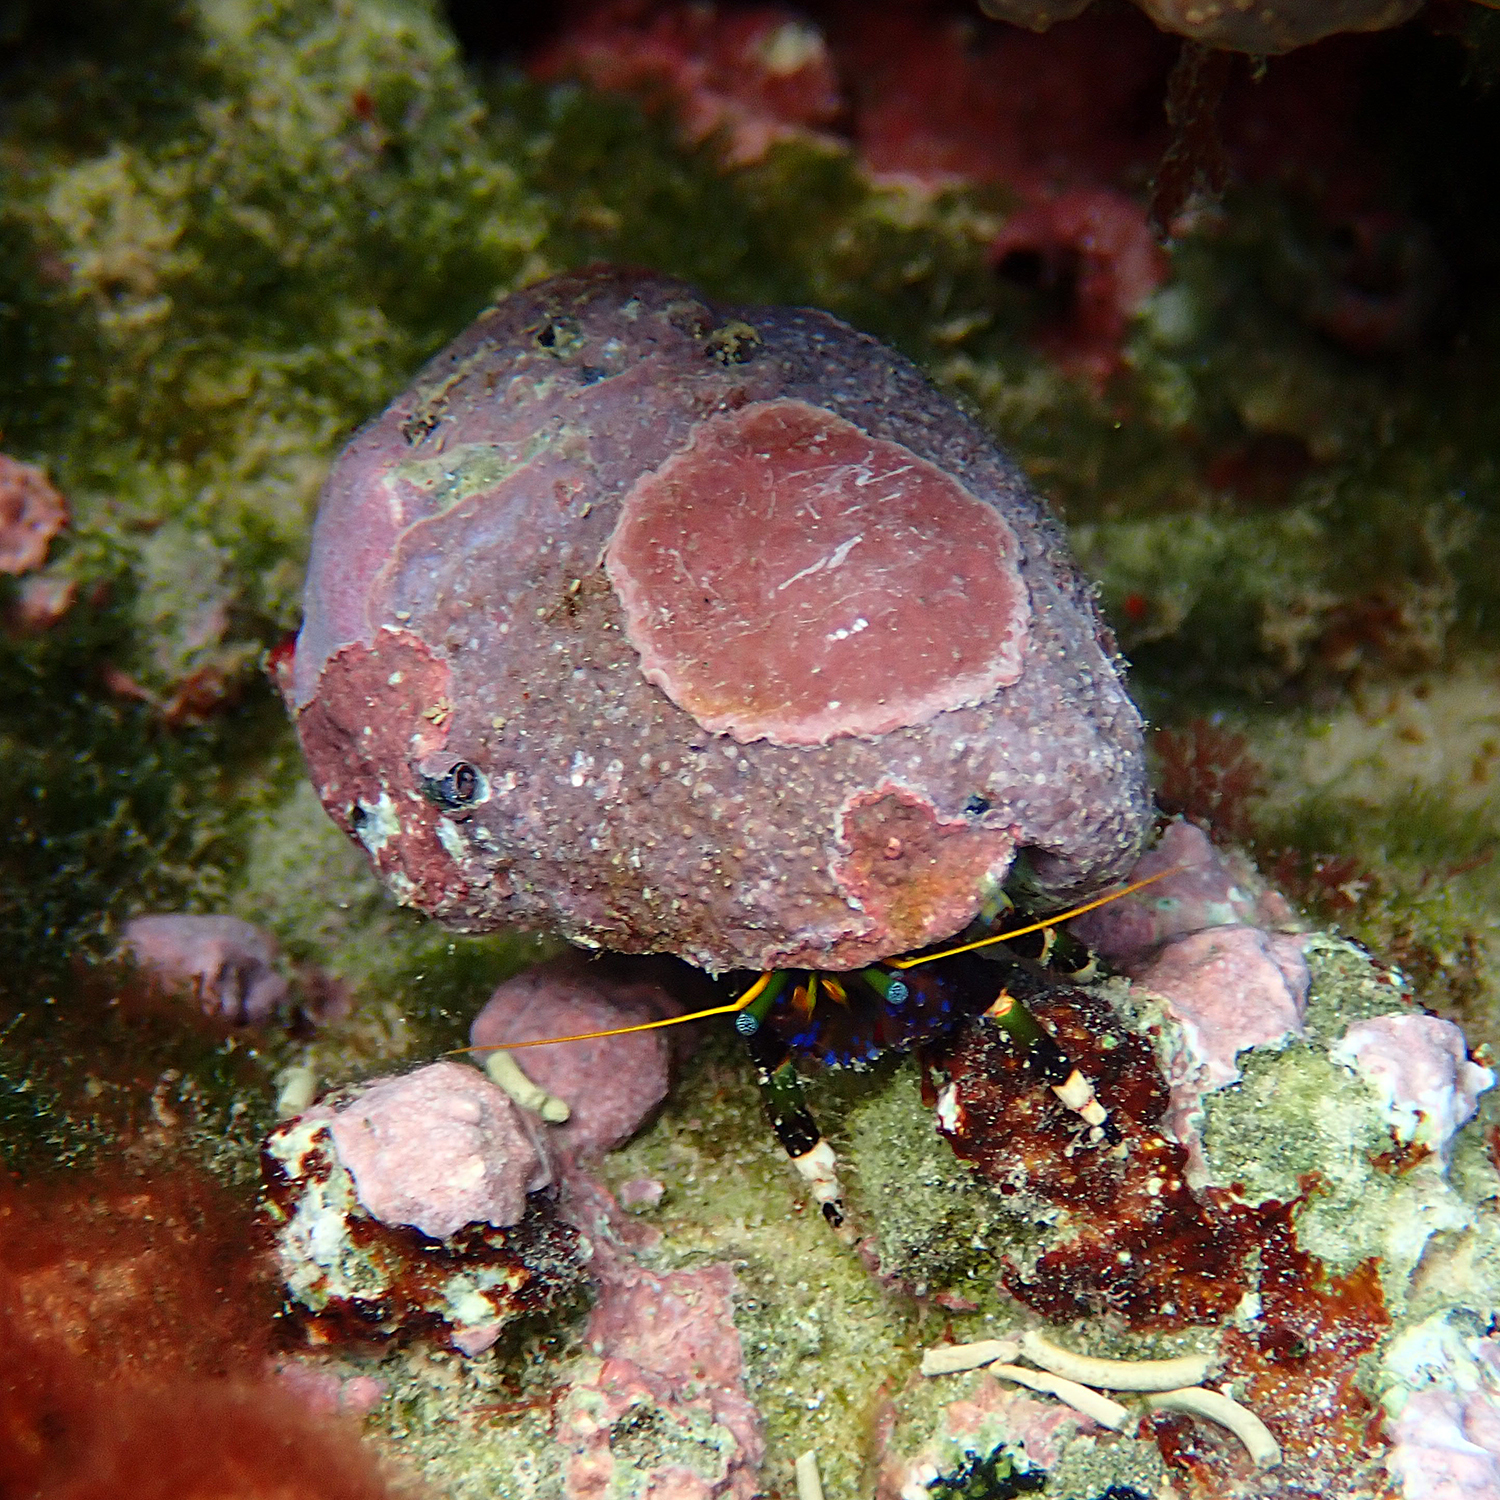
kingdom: Animalia
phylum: Arthropoda
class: Malacostraca
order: Decapoda
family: Diogenidae
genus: Calcinus
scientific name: Calcinus imperialis
